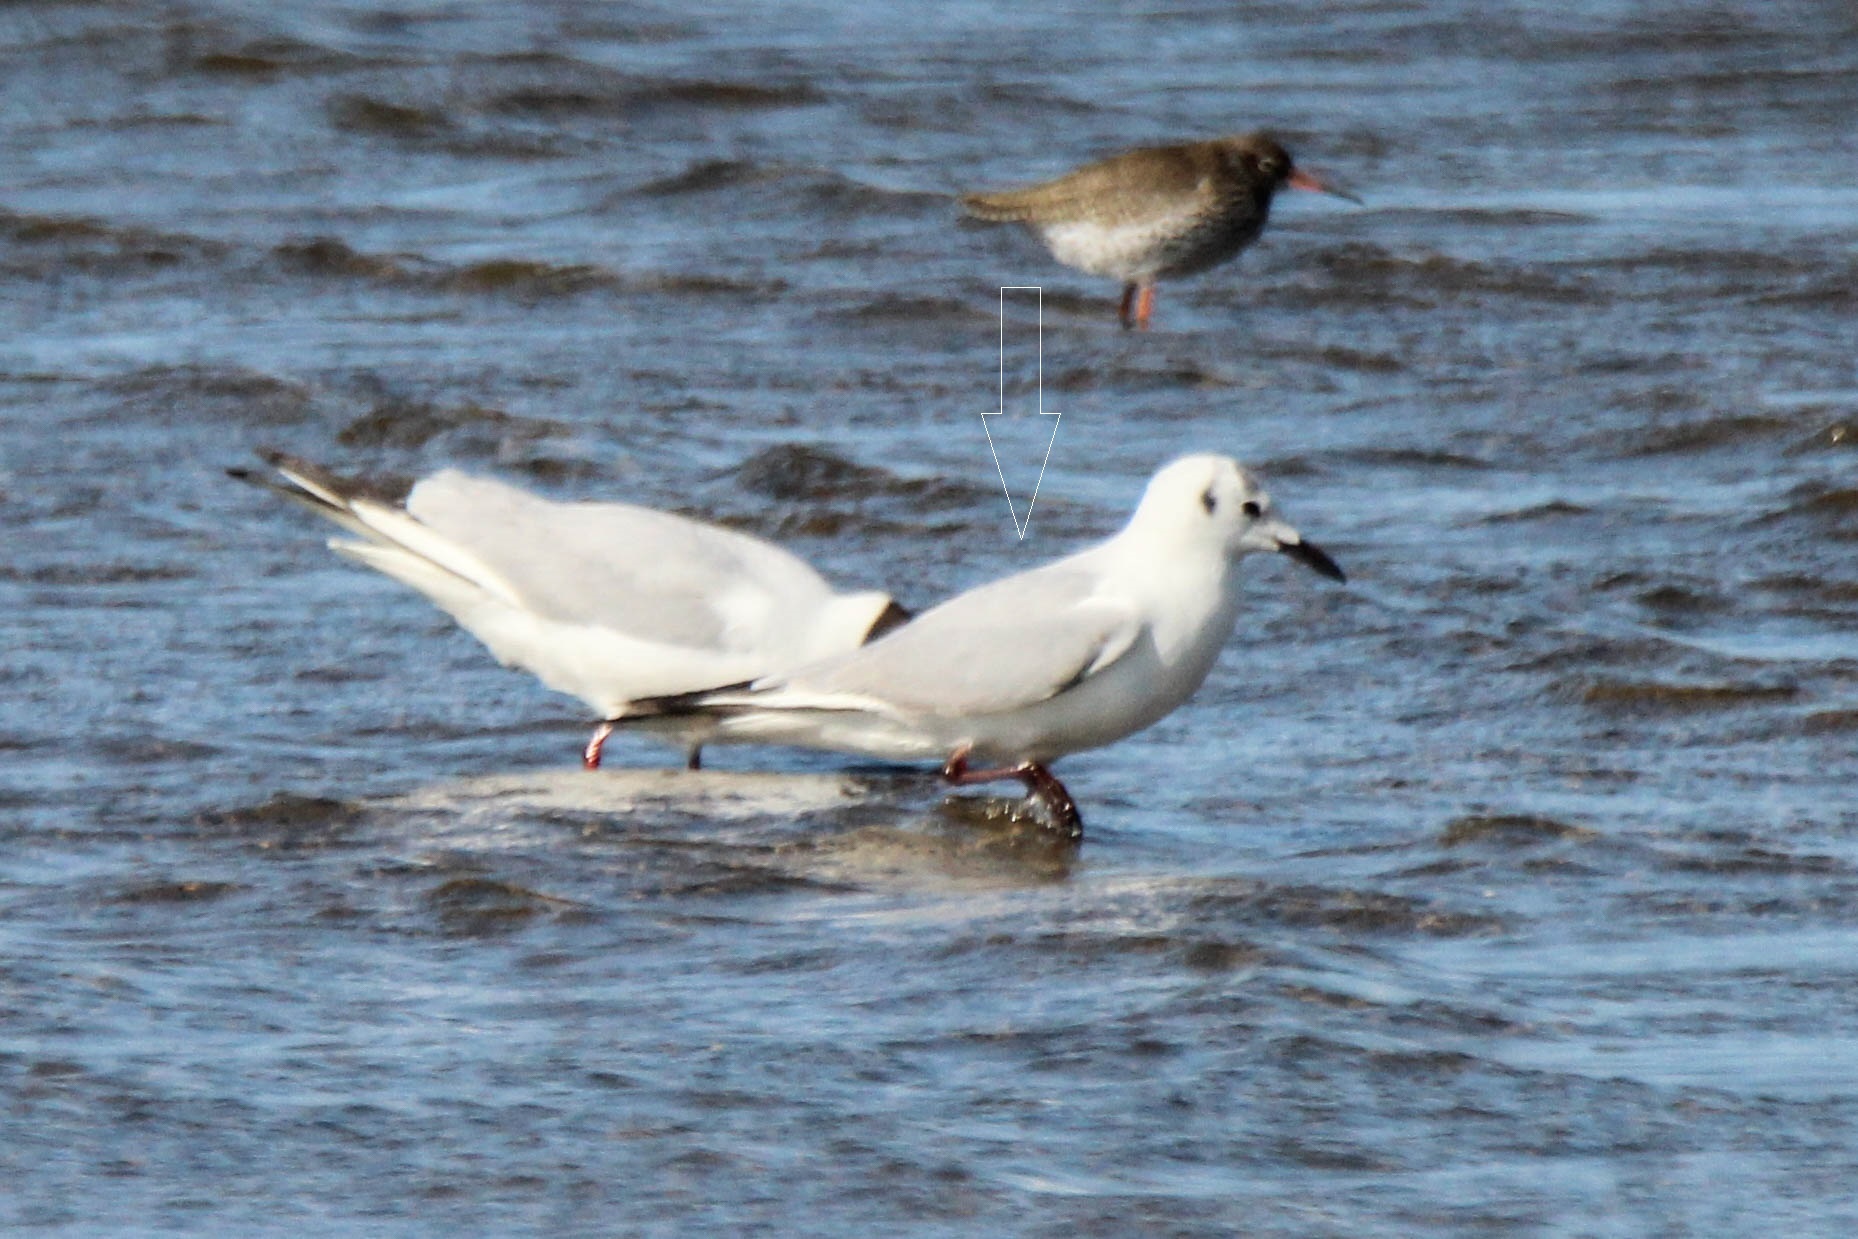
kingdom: Animalia
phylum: Chordata
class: Aves
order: Charadriiformes
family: Laridae
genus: Chroicocephalus
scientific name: Chroicocephalus ridibundus
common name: Black-headed gull
